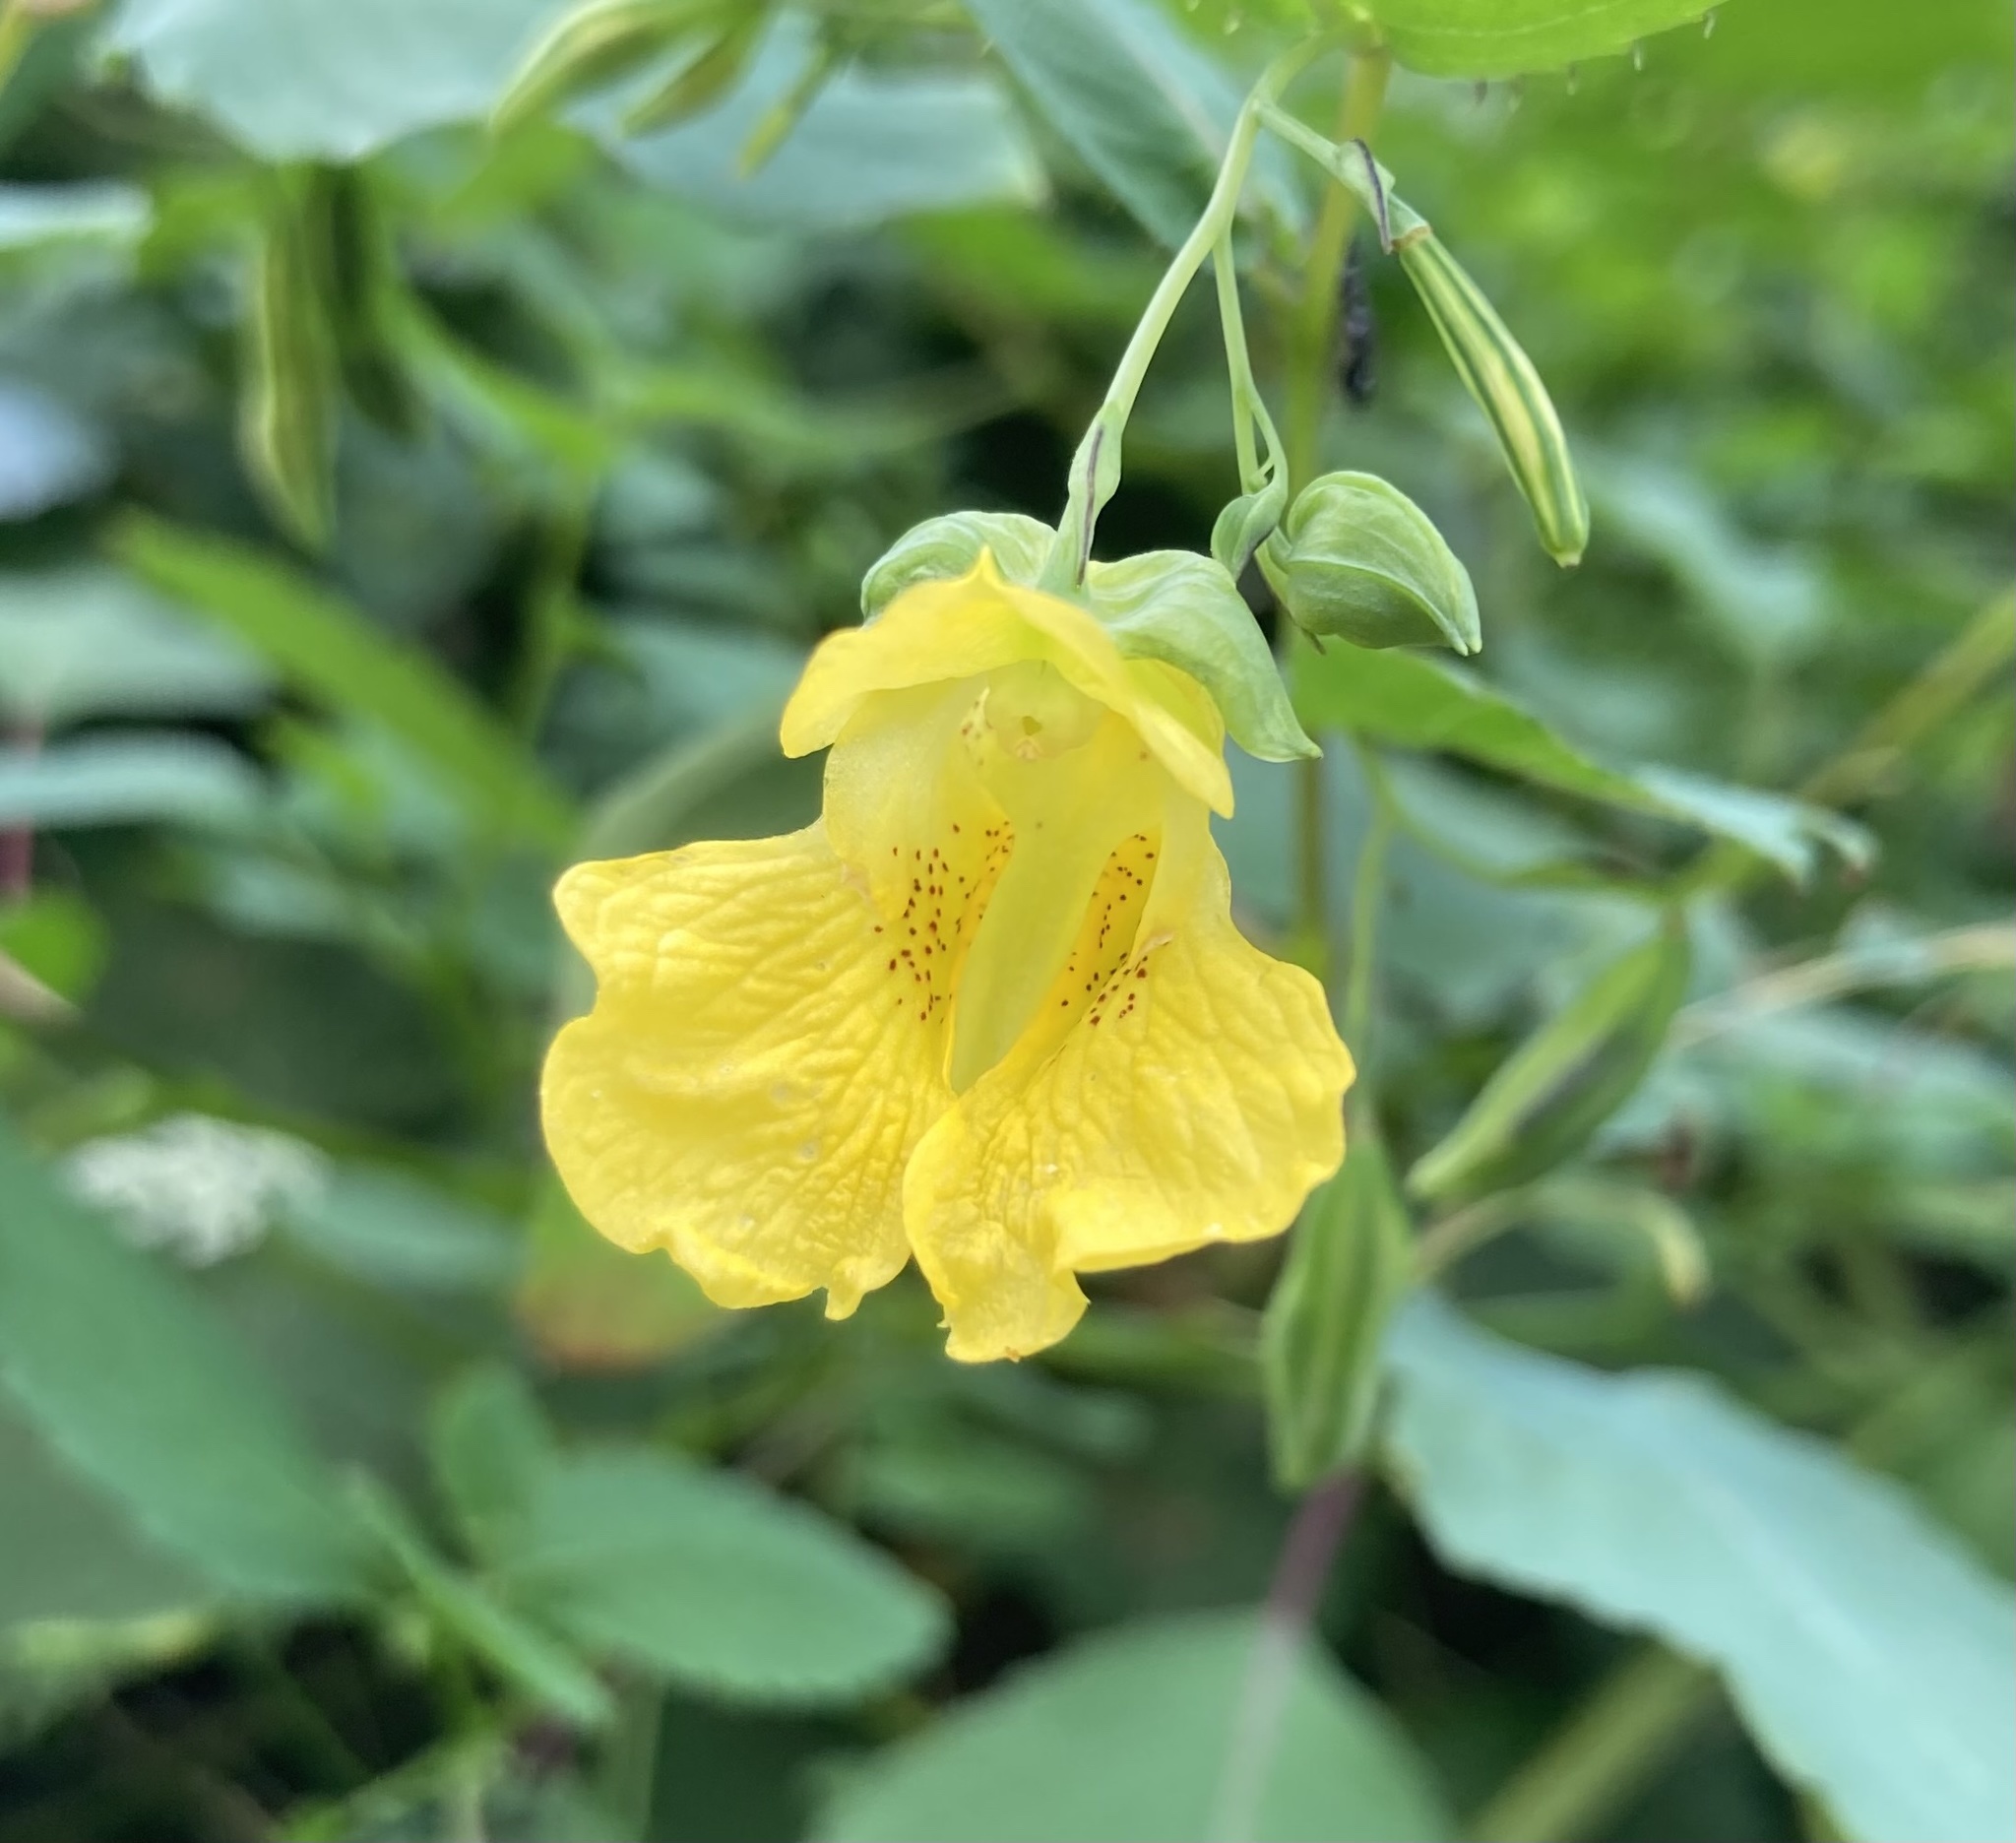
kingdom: Plantae
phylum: Tracheophyta
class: Magnoliopsida
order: Ericales
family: Balsaminaceae
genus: Impatiens
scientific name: Impatiens pallida
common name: Pale snapweed
